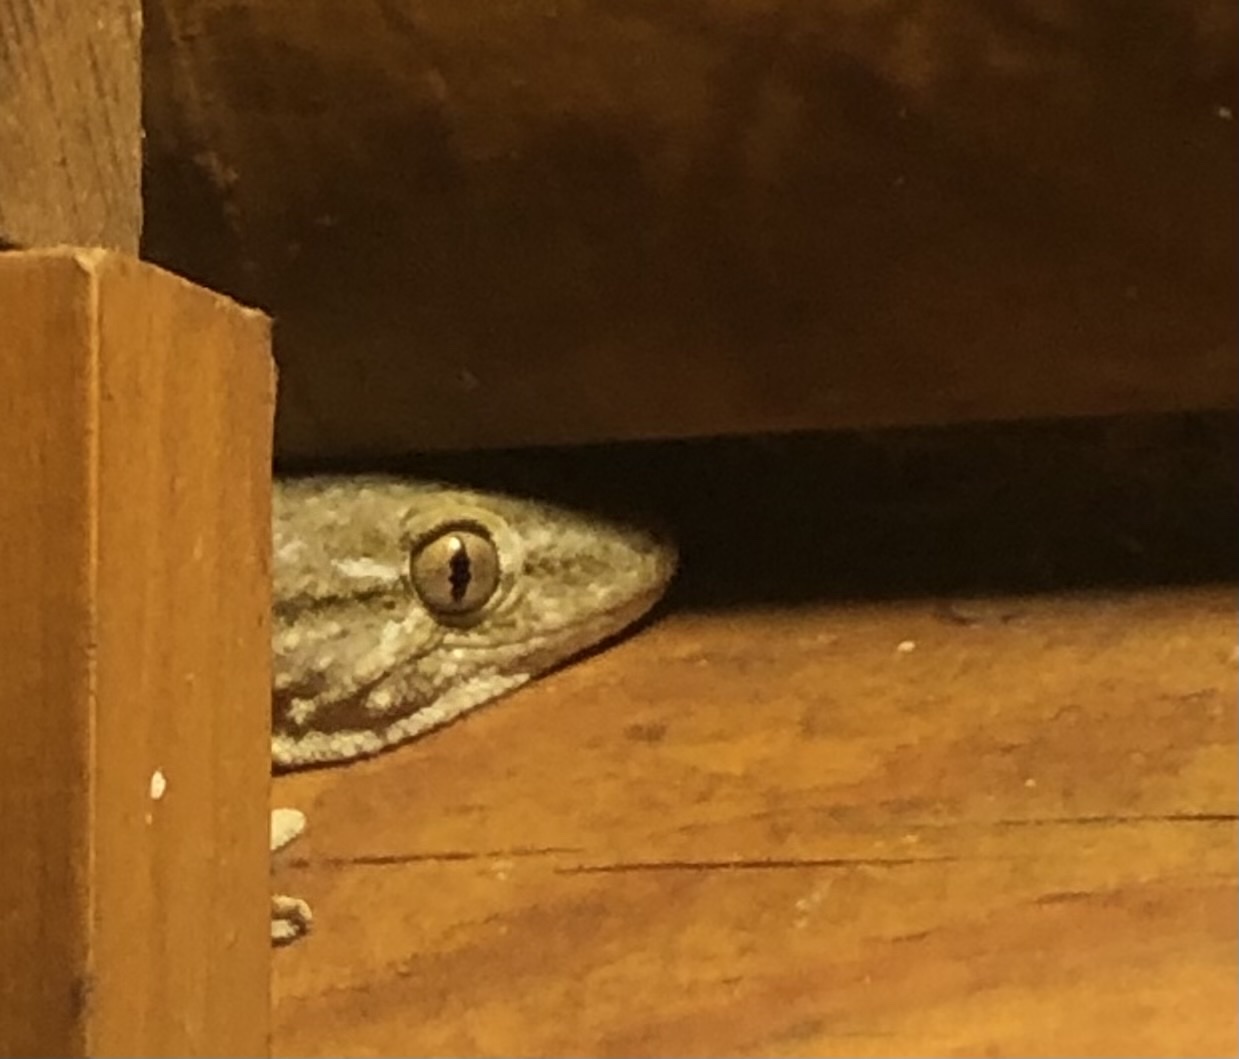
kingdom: Animalia
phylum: Chordata
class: Squamata
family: Phyllodactylidae
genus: Tarentola
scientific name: Tarentola mauritanica
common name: Moorish gecko
